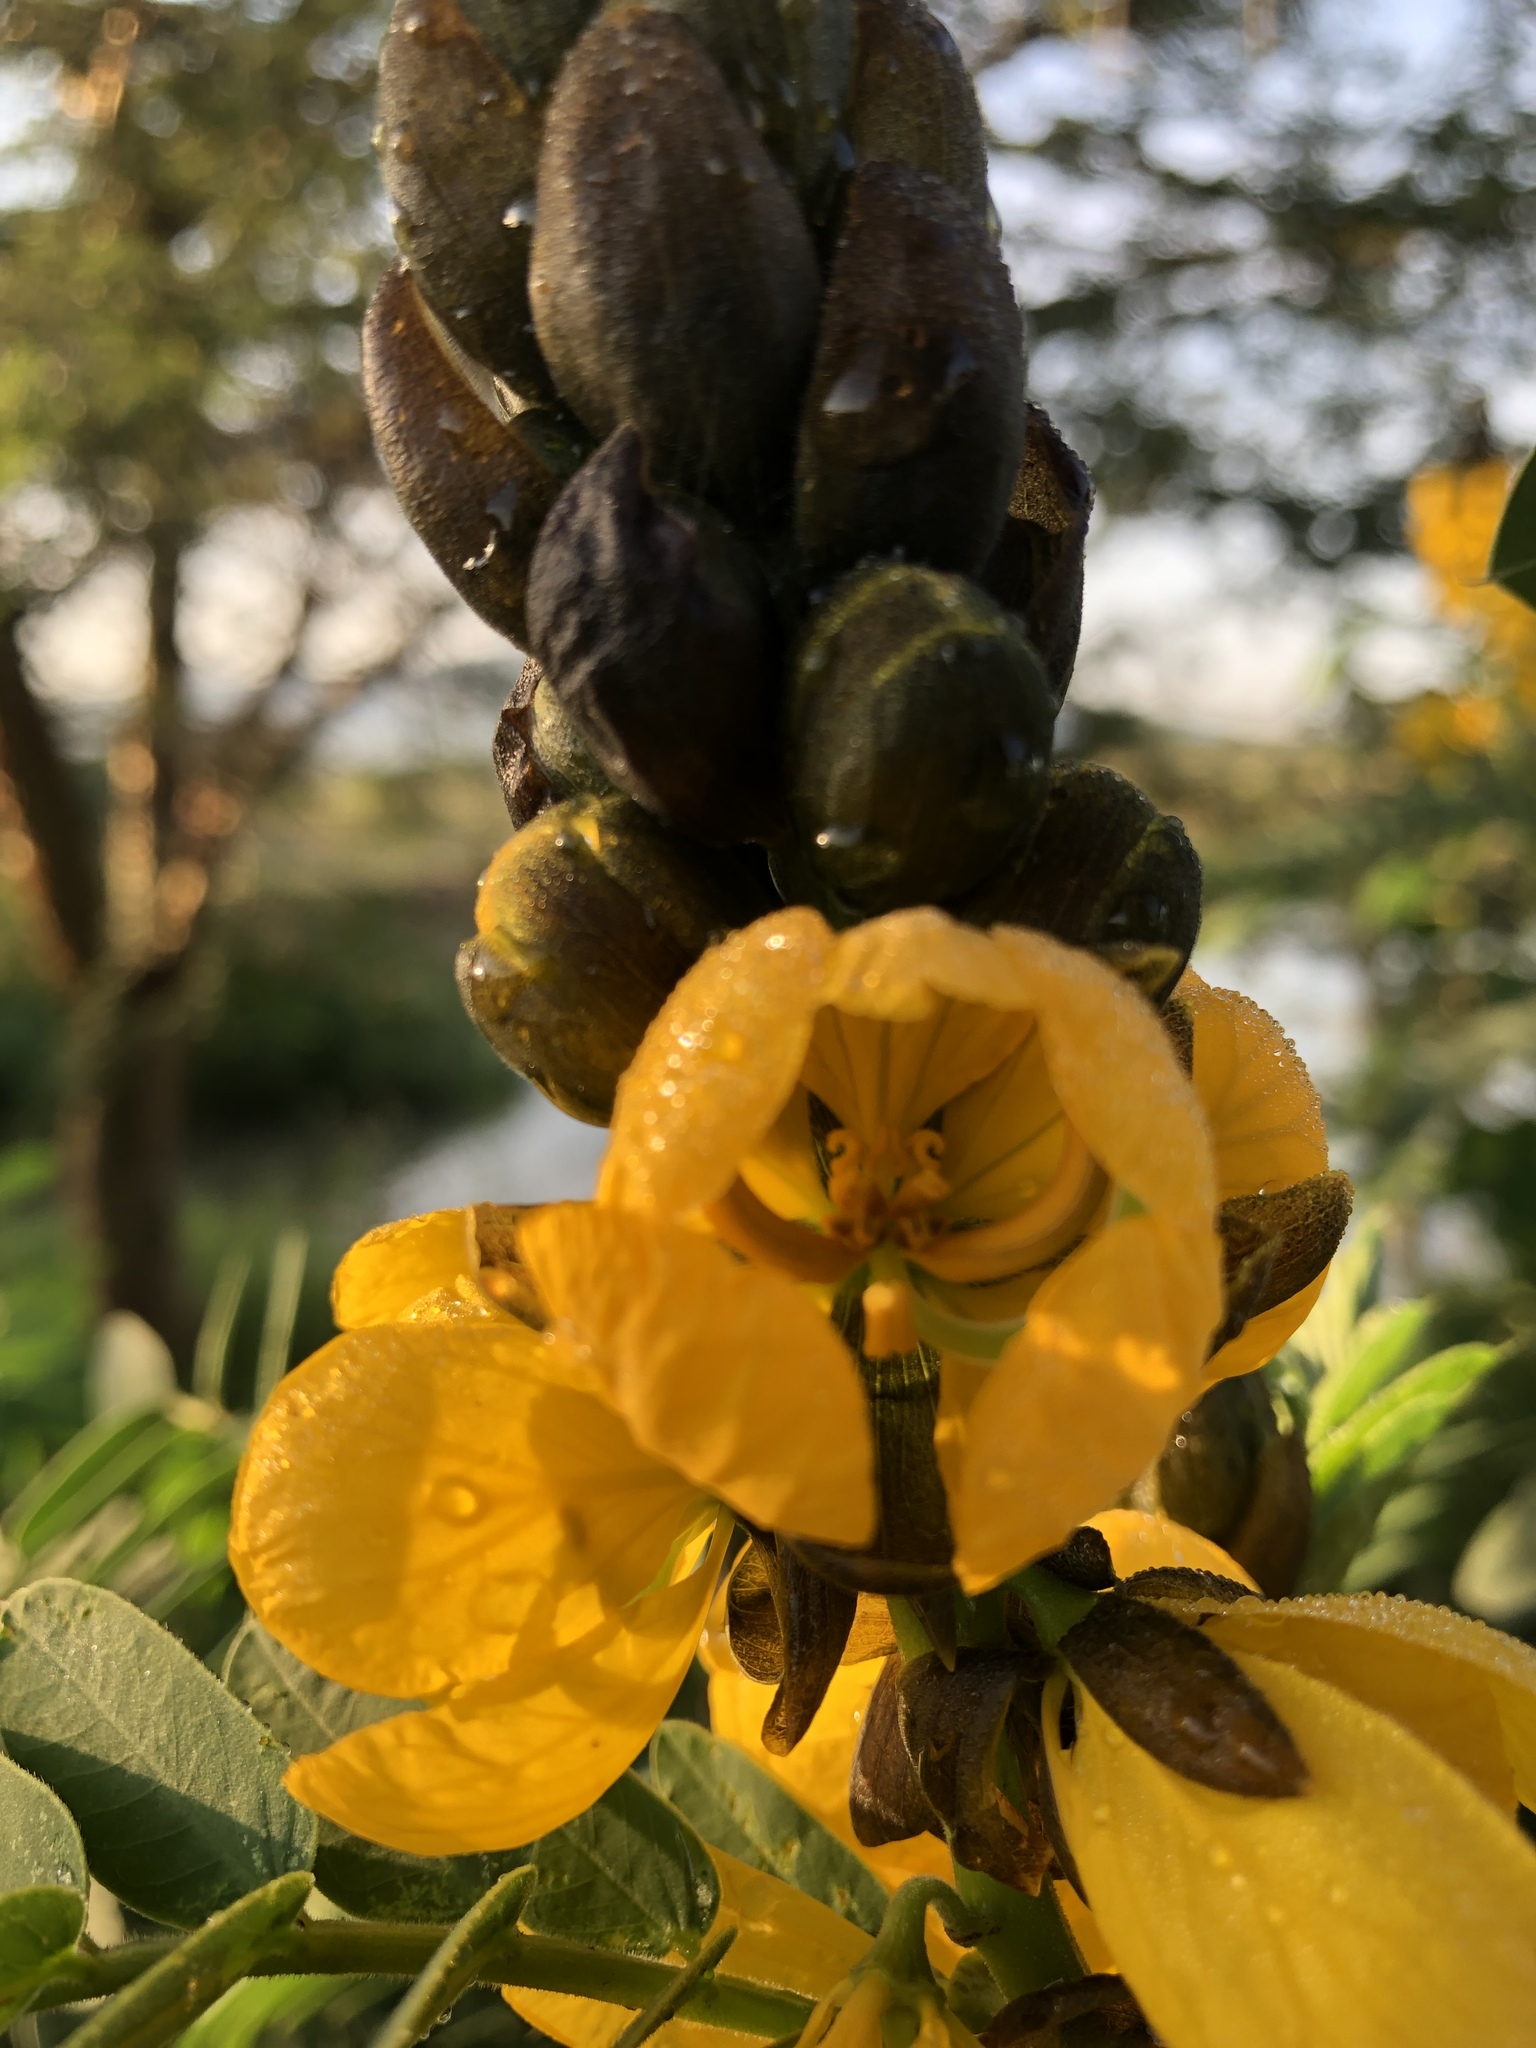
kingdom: Plantae
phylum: Tracheophyta
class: Magnoliopsida
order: Fabales
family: Fabaceae
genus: Senna
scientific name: Senna didymobotrya
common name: African senna
